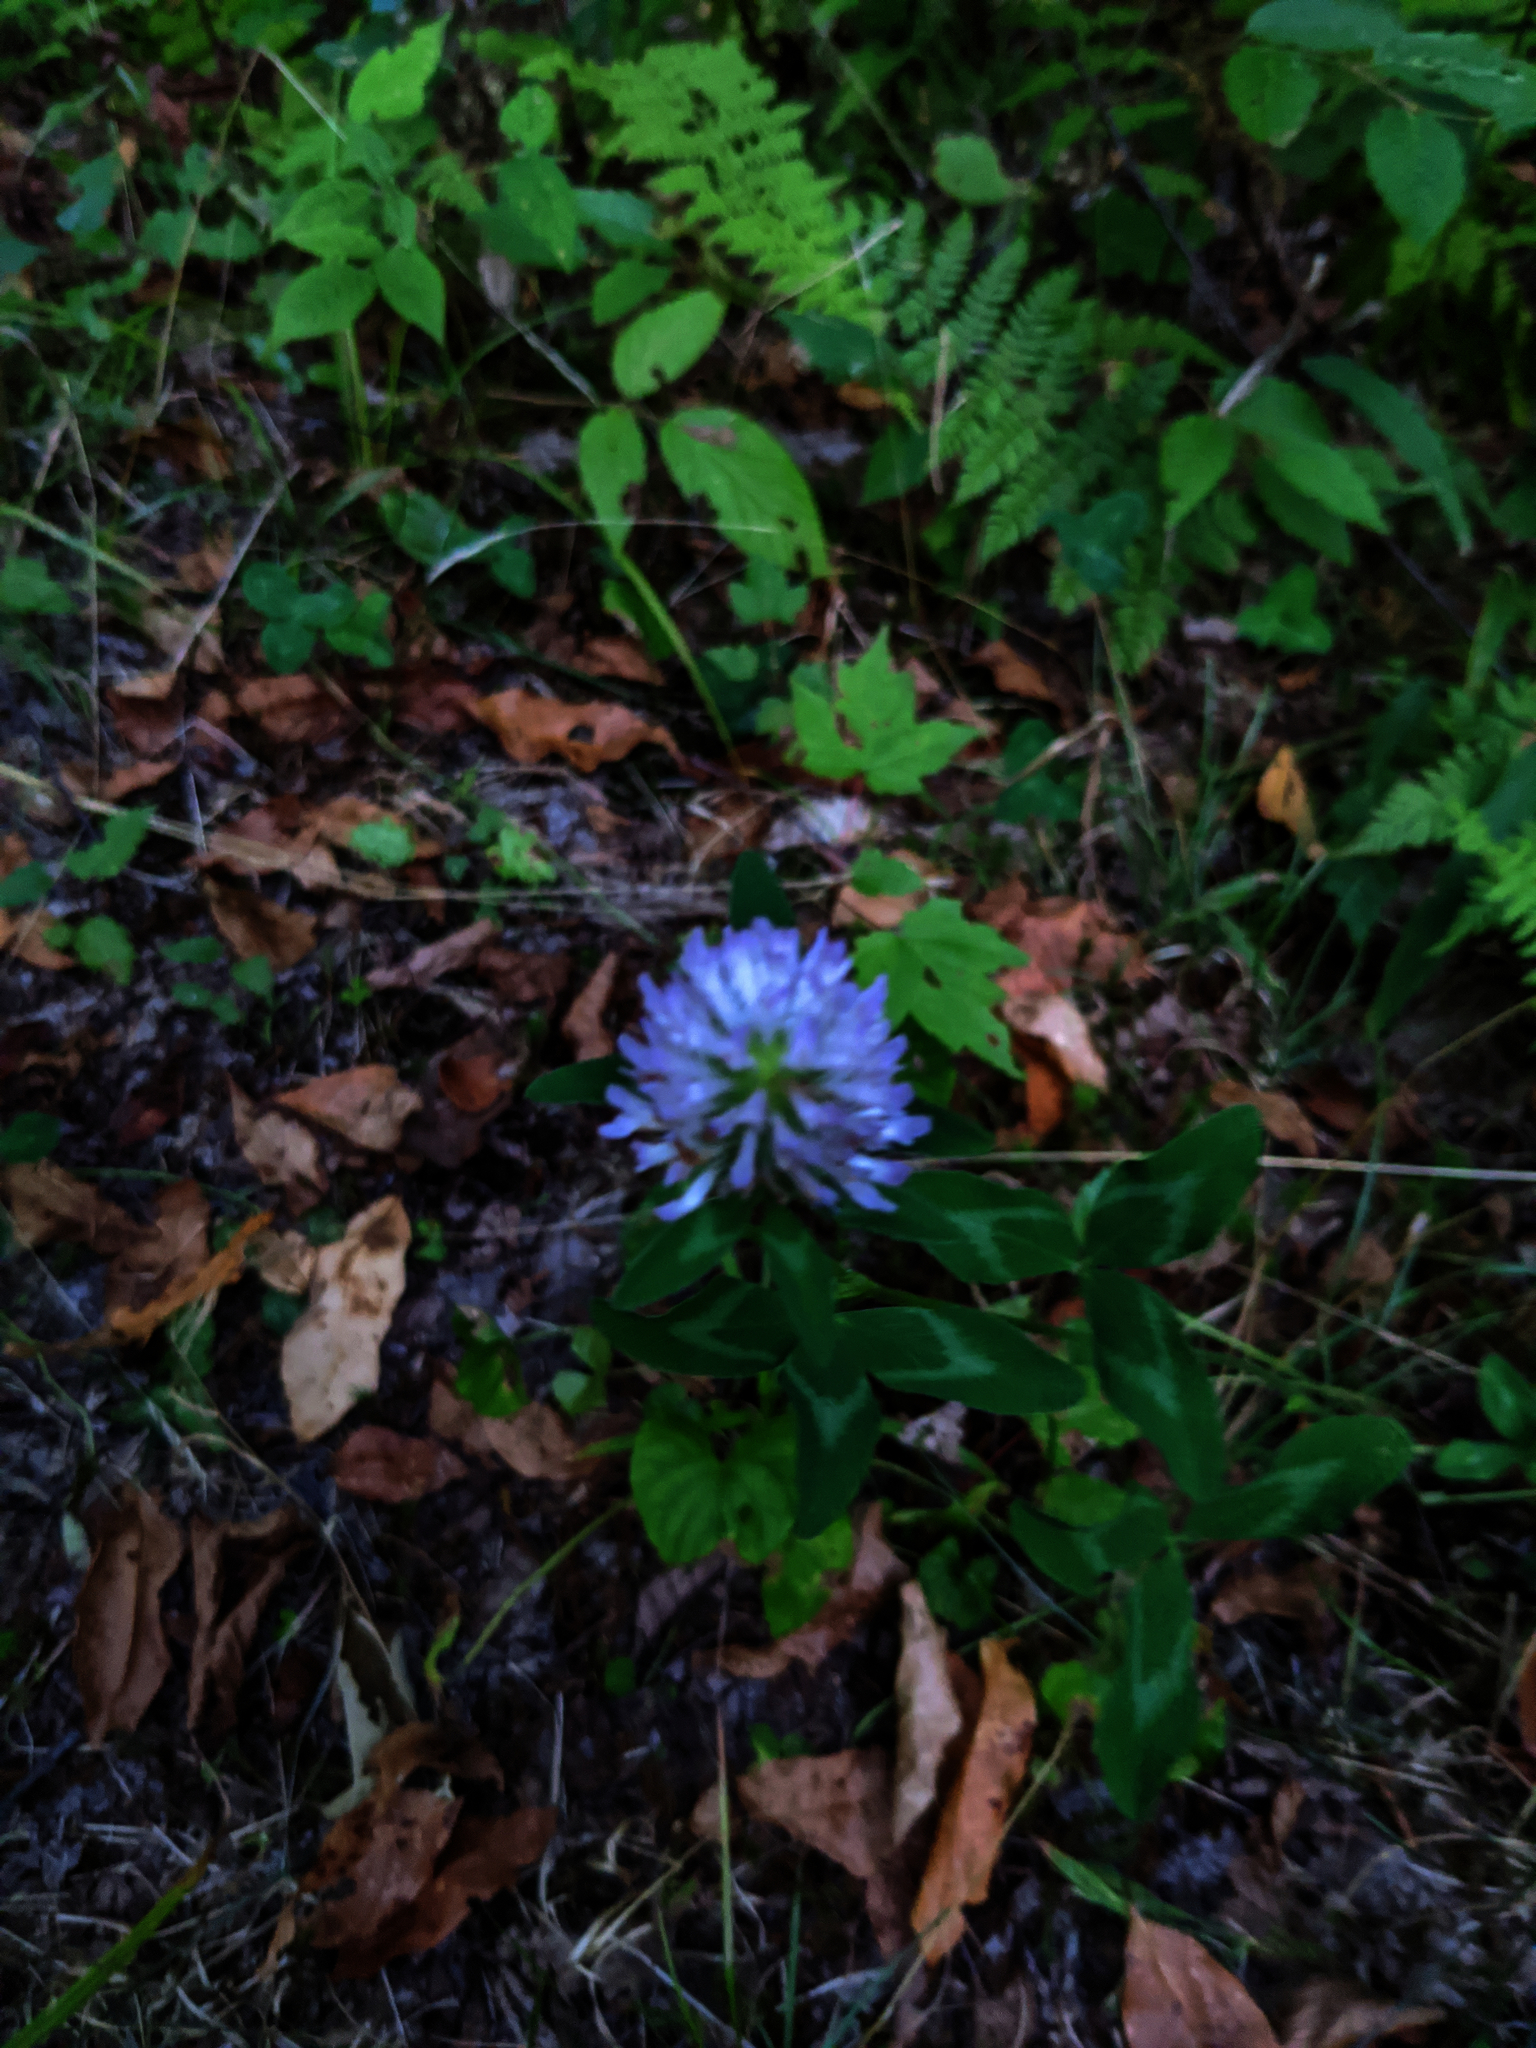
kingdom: Plantae
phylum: Tracheophyta
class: Magnoliopsida
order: Fabales
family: Fabaceae
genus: Trifolium
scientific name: Trifolium pratense
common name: Red clover
